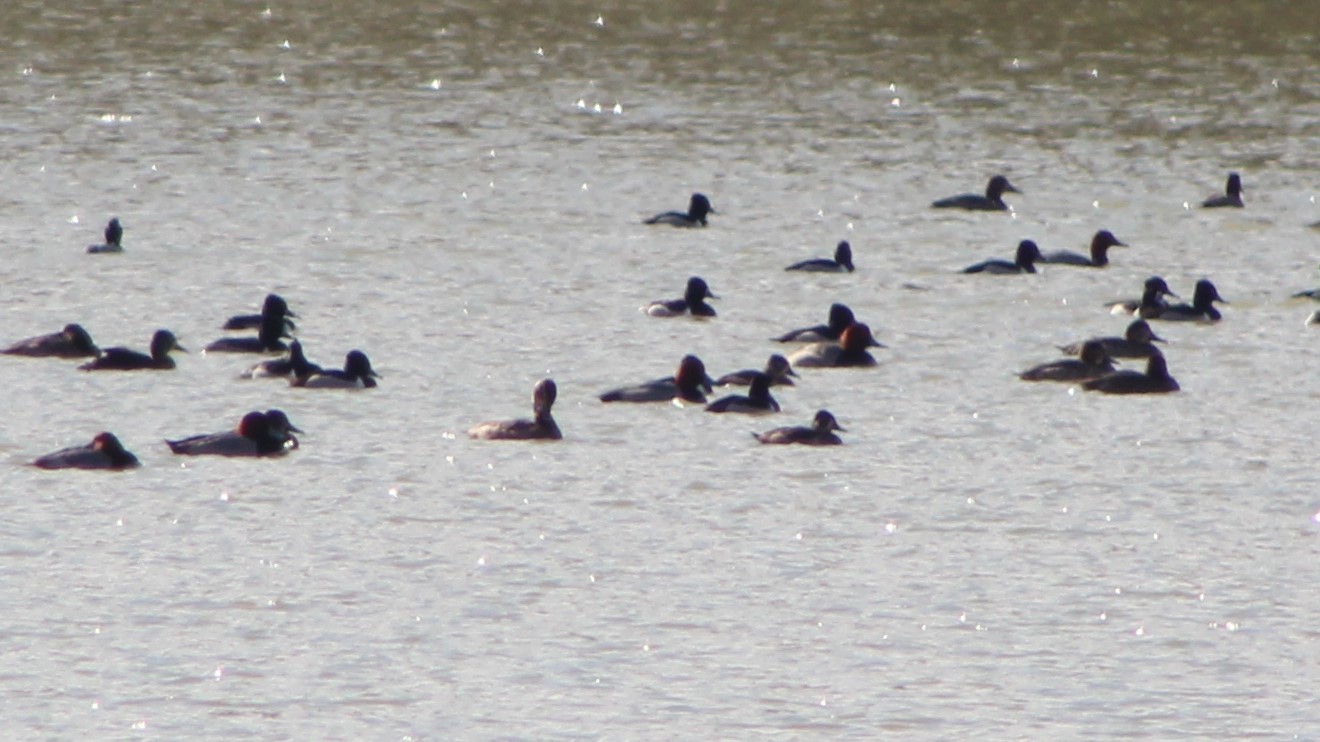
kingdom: Animalia
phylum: Chordata
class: Aves
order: Anseriformes
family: Anatidae
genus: Aythya
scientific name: Aythya collaris
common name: Ring-necked duck
